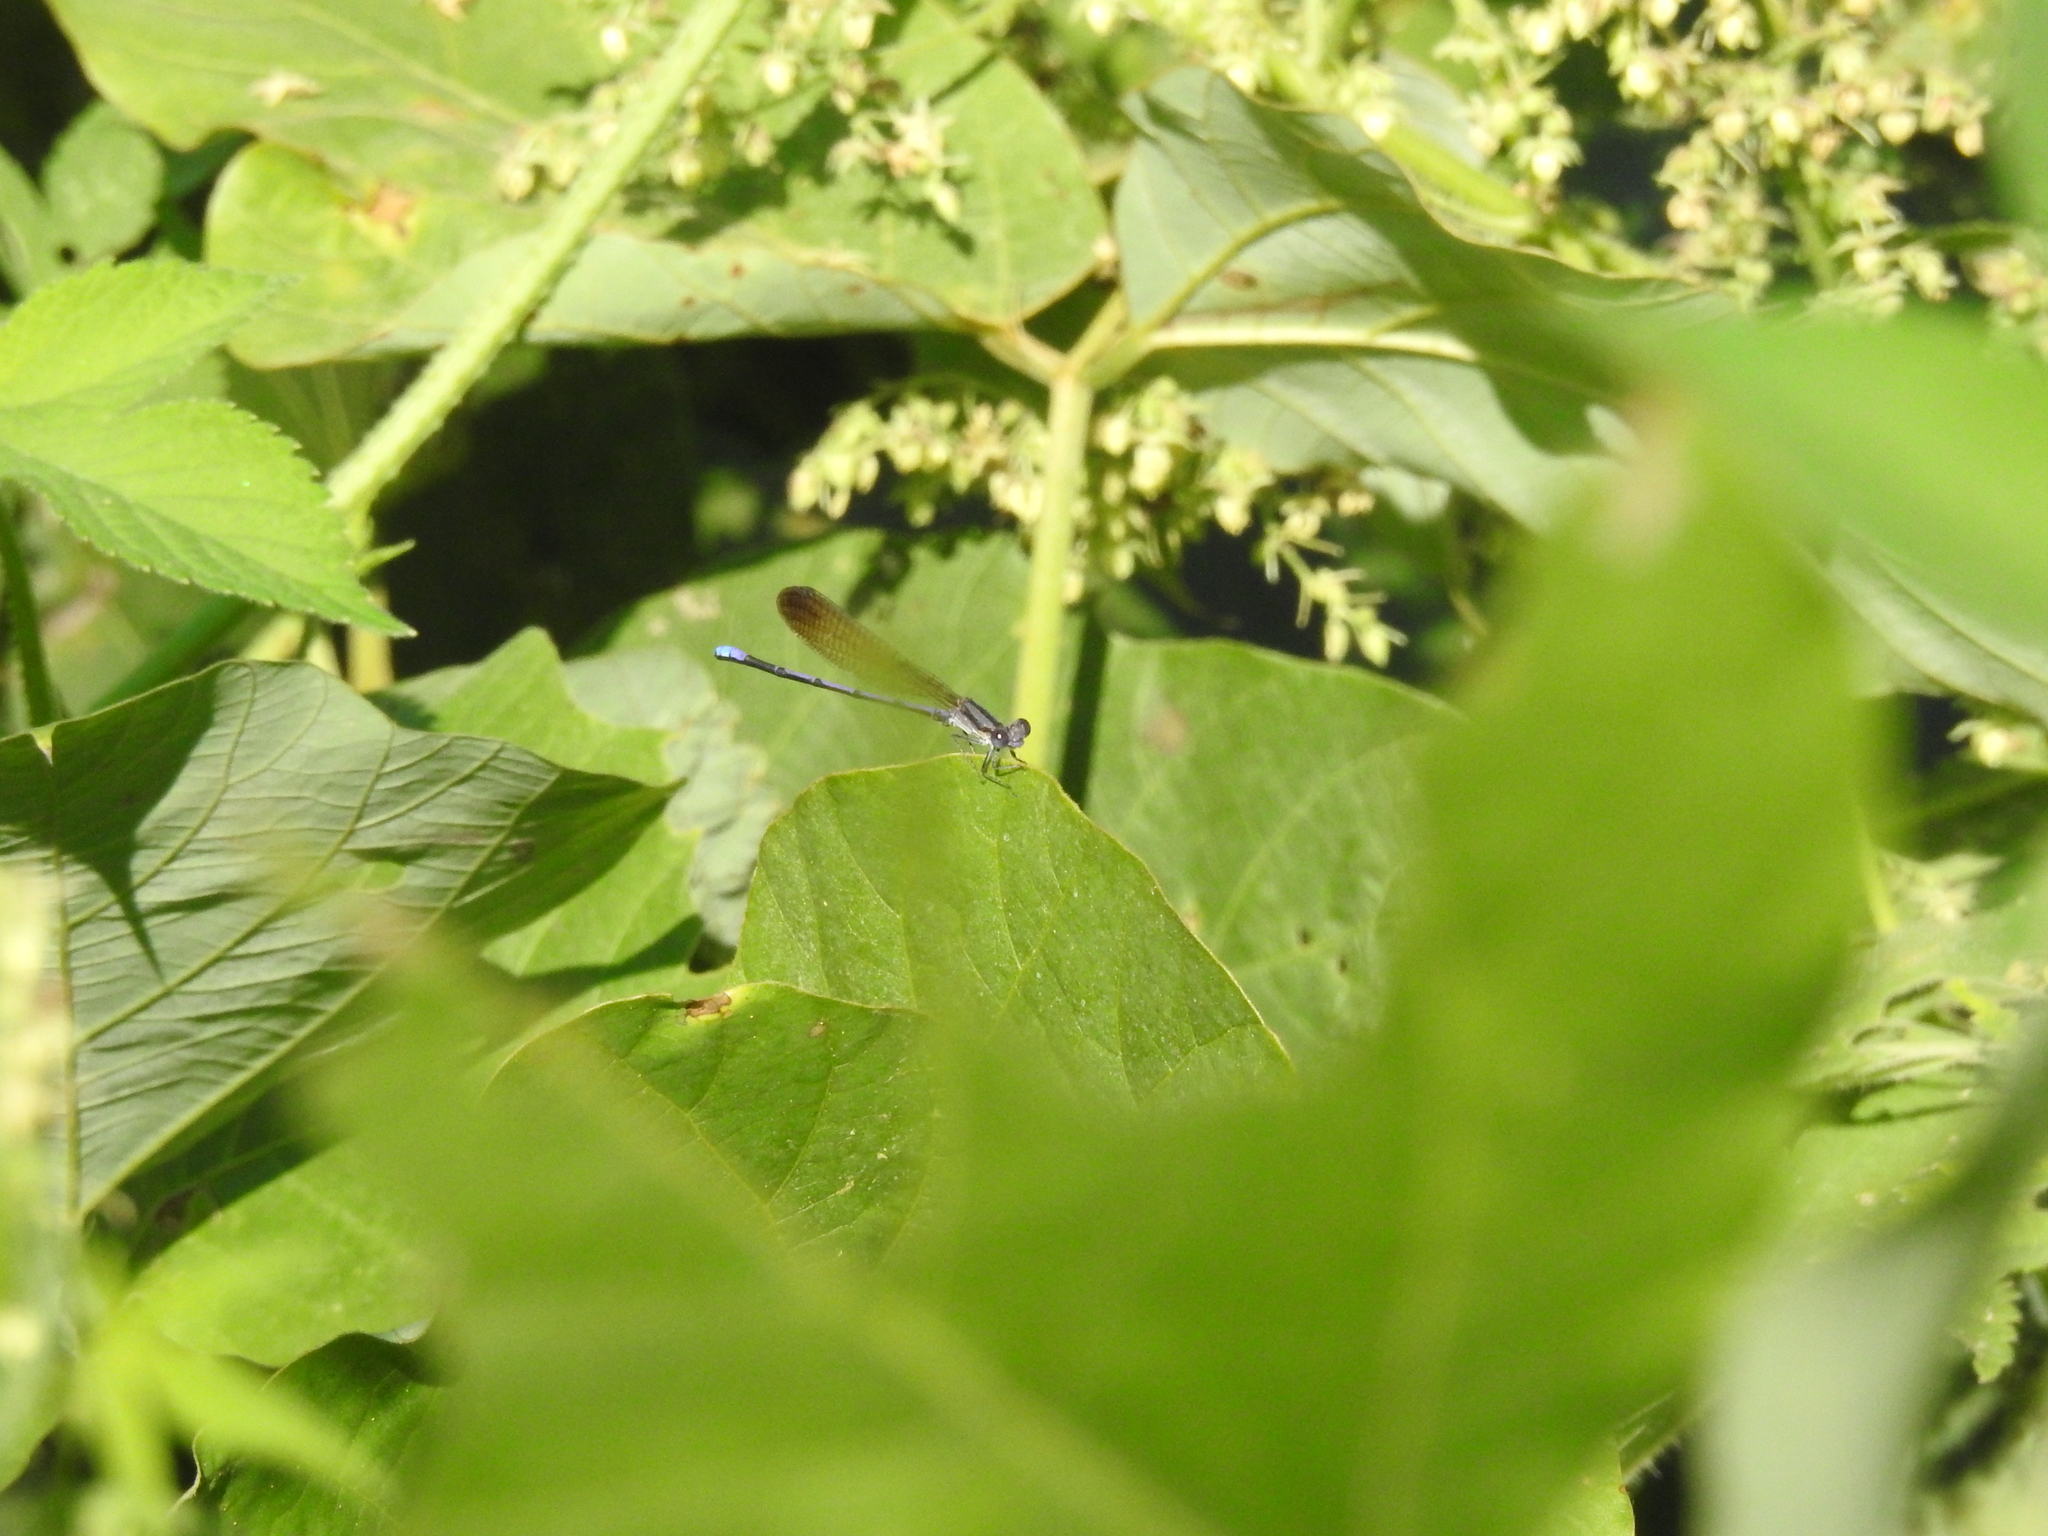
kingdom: Animalia
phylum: Arthropoda
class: Insecta
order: Odonata
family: Coenagrionidae
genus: Argia
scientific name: Argia fumipennis
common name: Variable dancer
